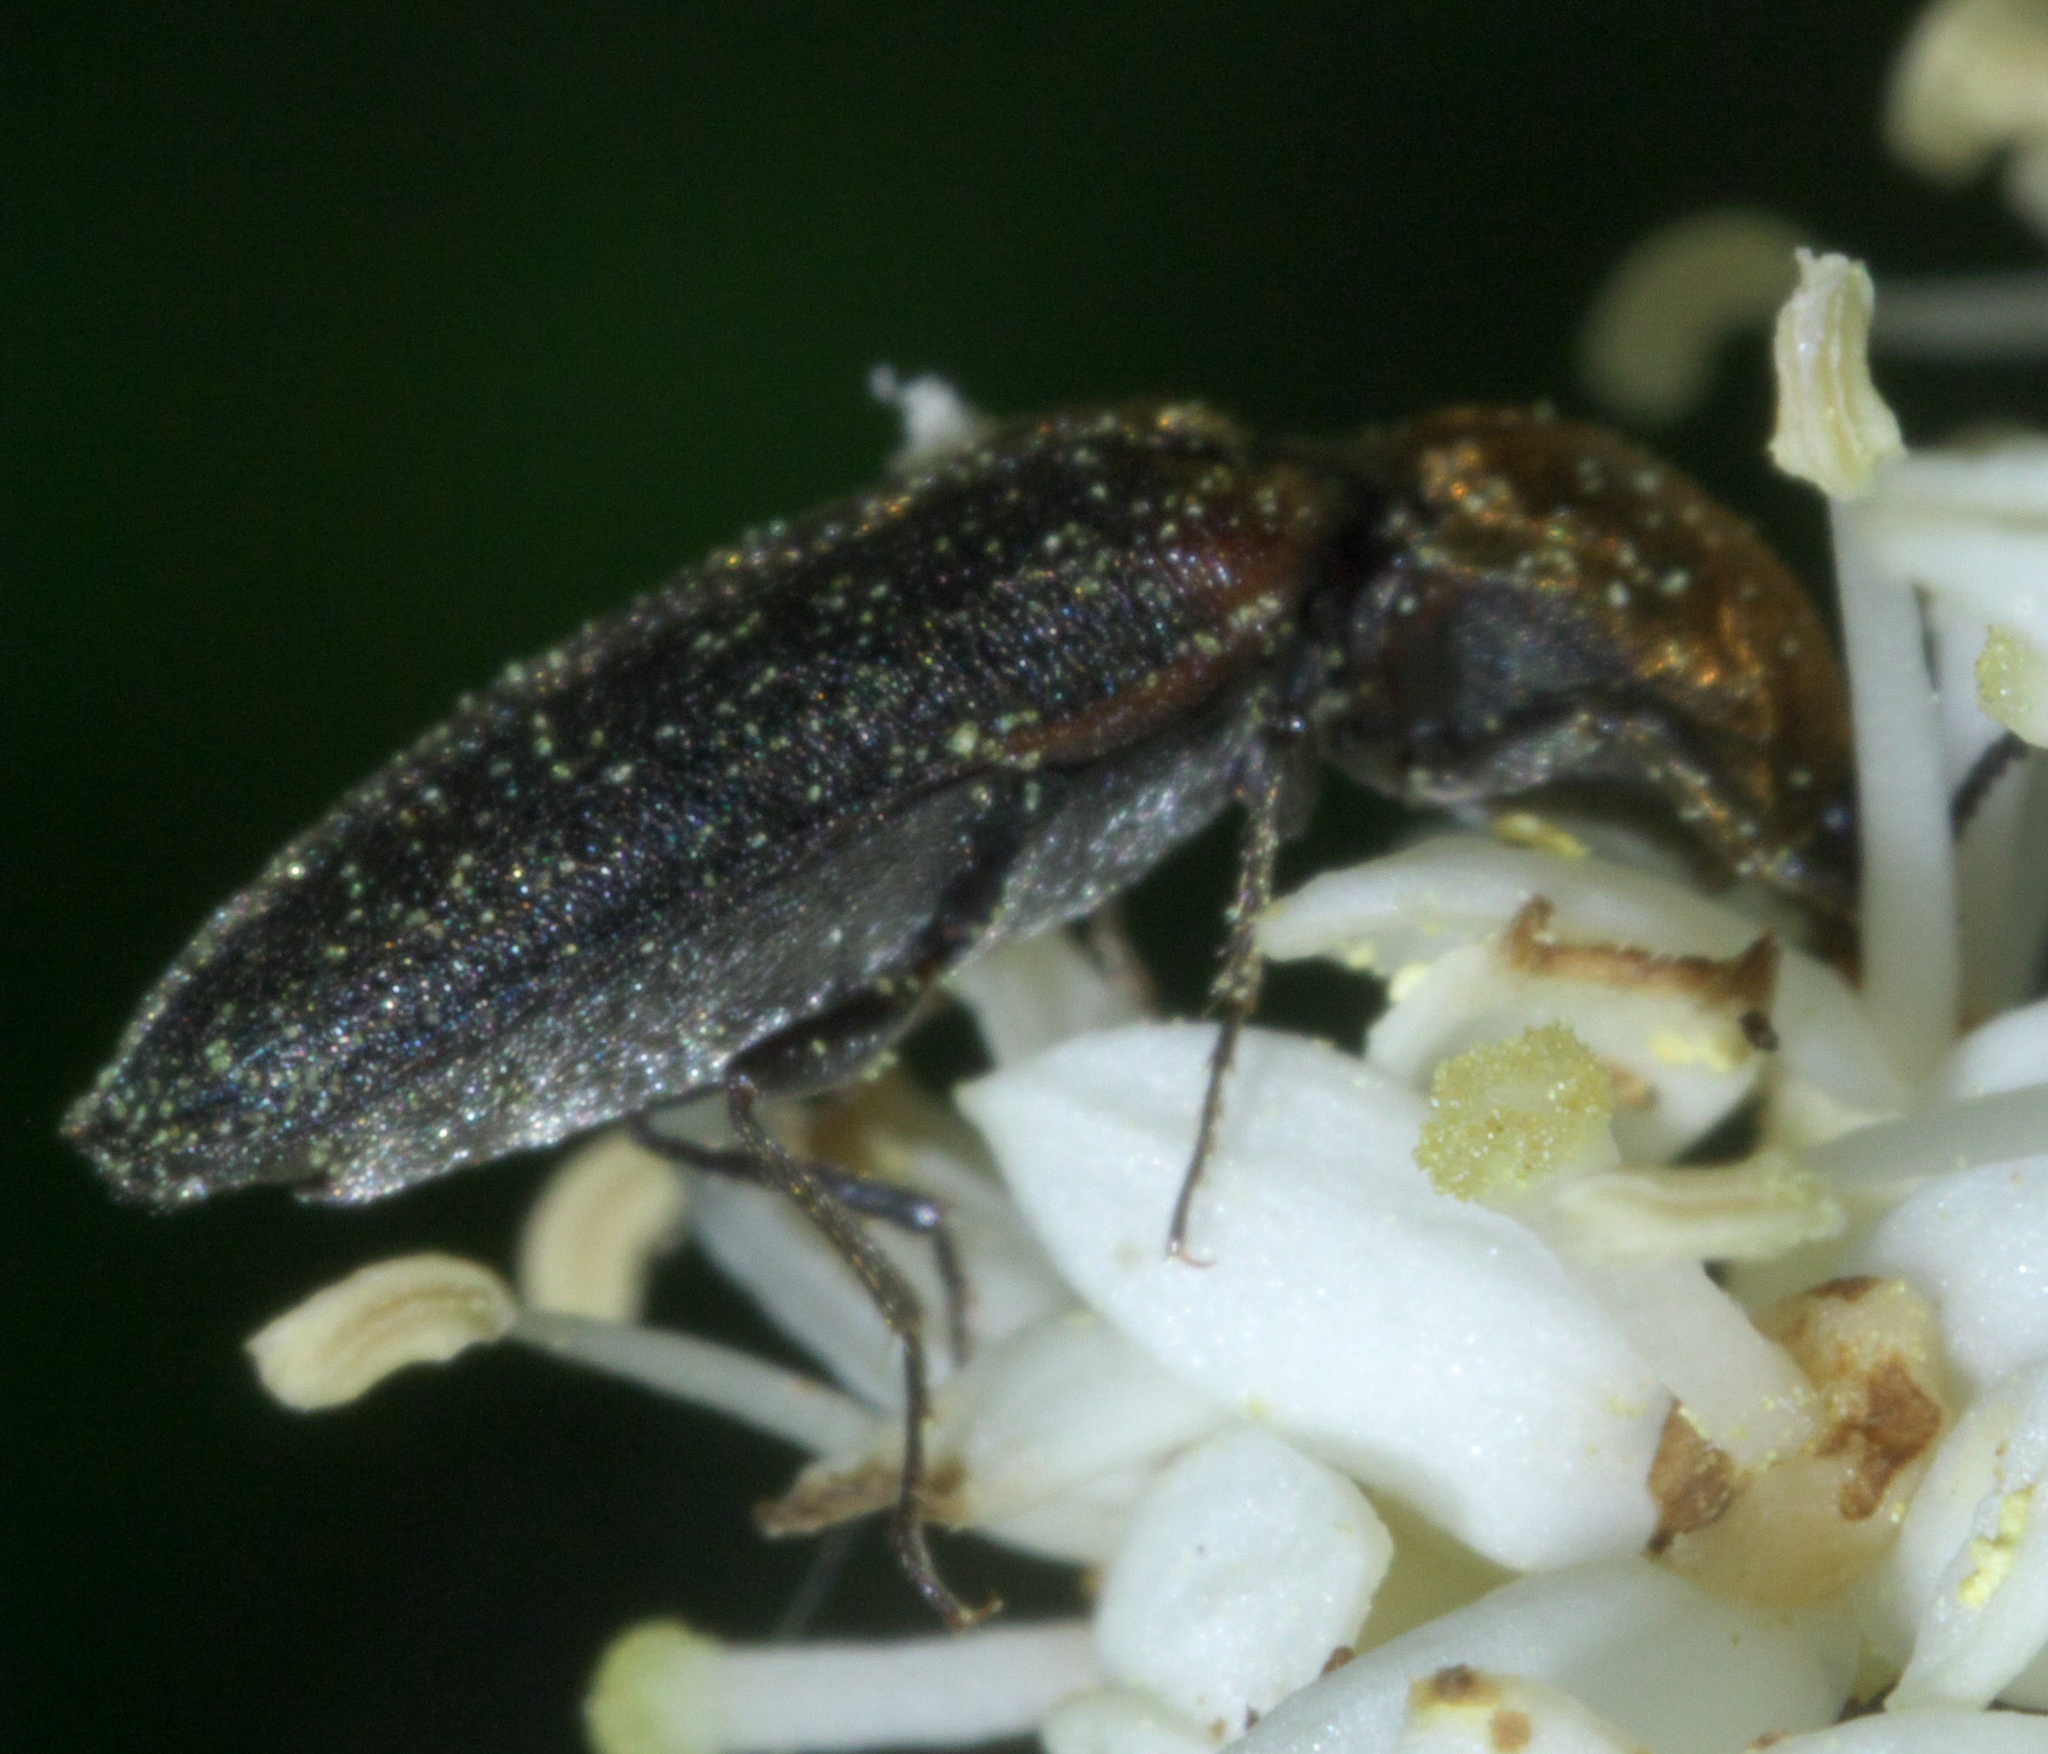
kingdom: Animalia
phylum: Arthropoda
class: Insecta
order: Coleoptera
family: Elateridae
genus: Limonius
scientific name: Limonius auripilis
